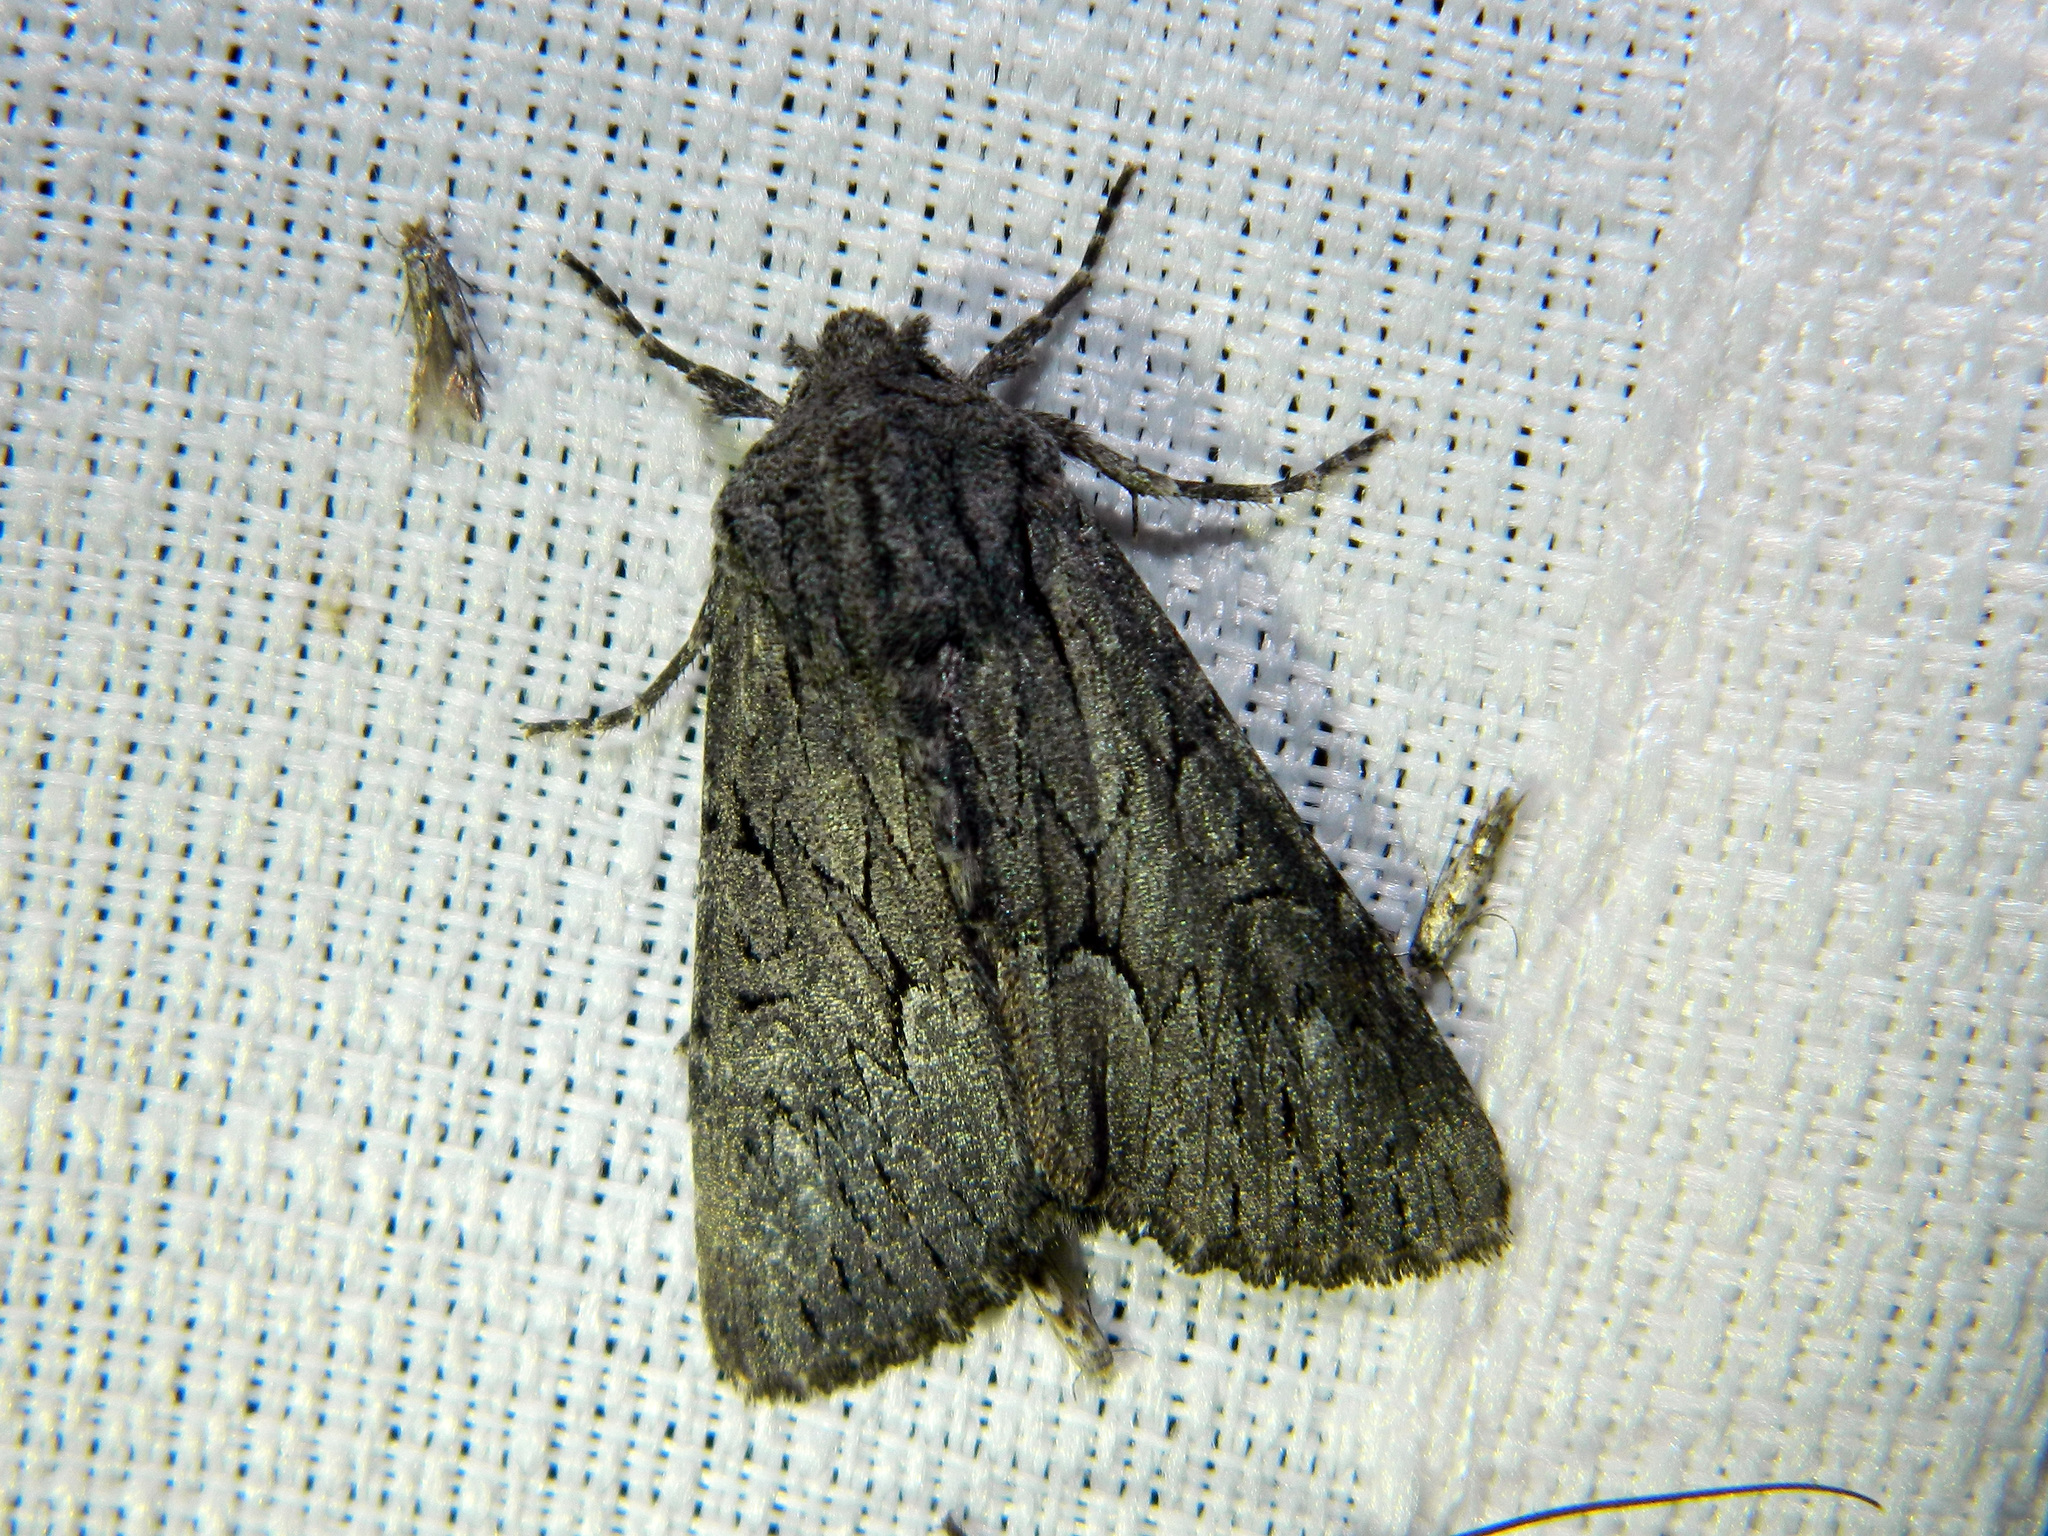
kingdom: Animalia
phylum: Arthropoda
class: Insecta
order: Lepidoptera
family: Noctuidae
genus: Fishia
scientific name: Fishia yosemitae
